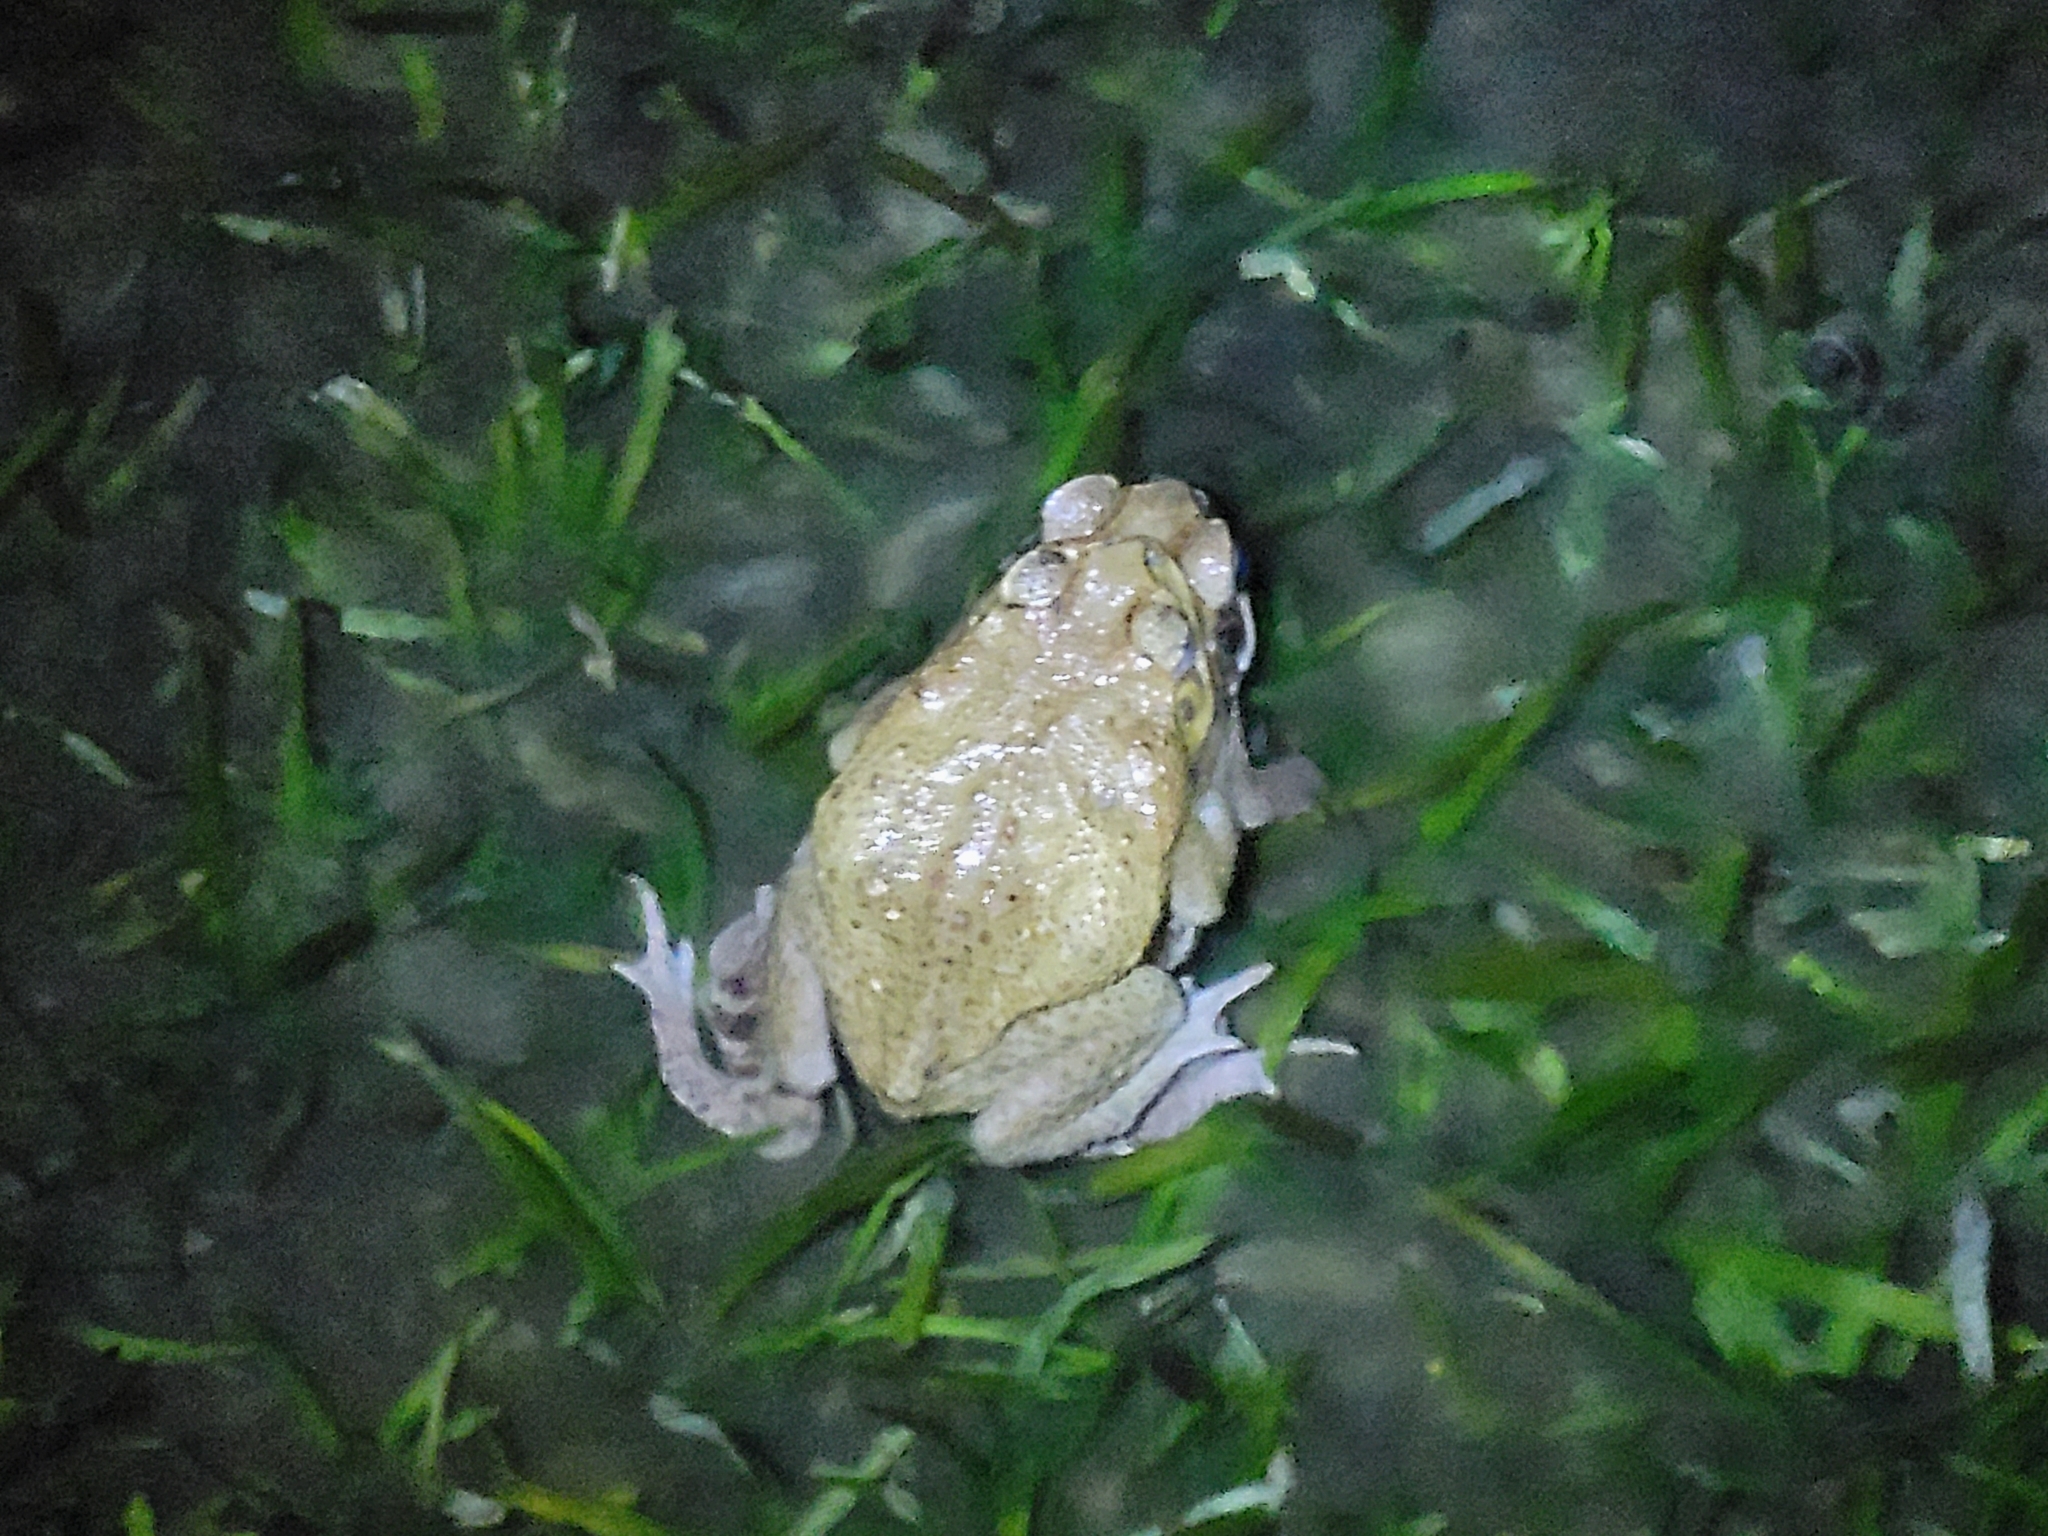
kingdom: Animalia
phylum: Chordata
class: Amphibia
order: Anura
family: Bufonidae
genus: Rhinella
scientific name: Rhinella marina
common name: Cane toad
